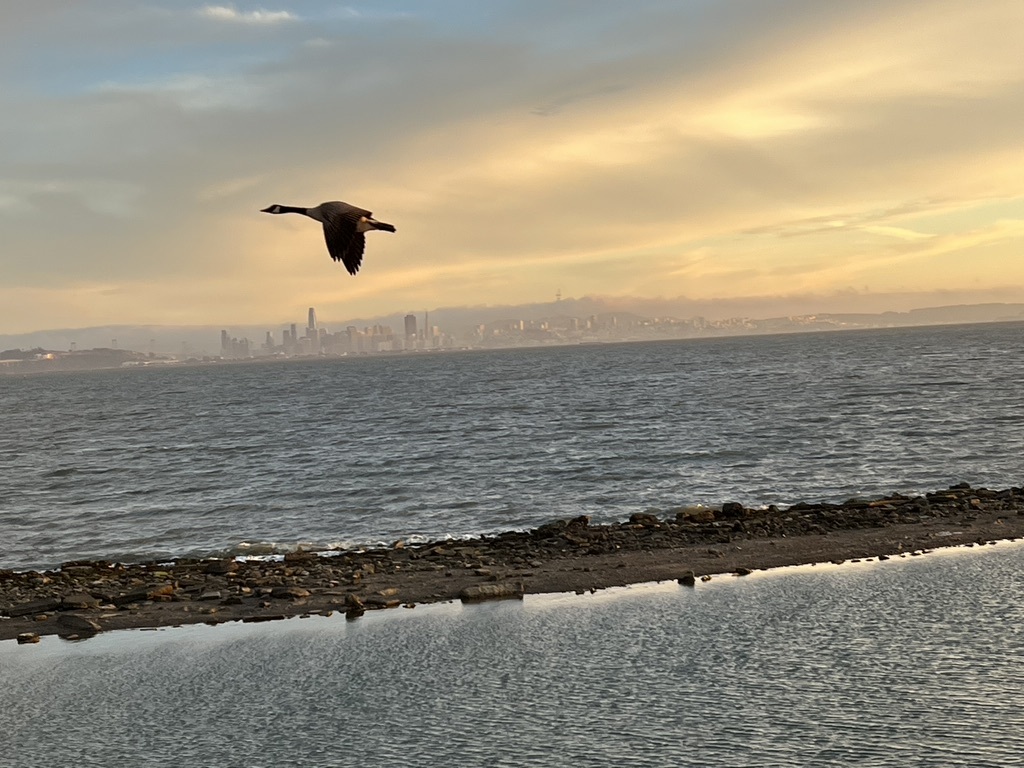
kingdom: Animalia
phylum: Chordata
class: Aves
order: Anseriformes
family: Anatidae
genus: Branta
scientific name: Branta canadensis
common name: Canada goose
